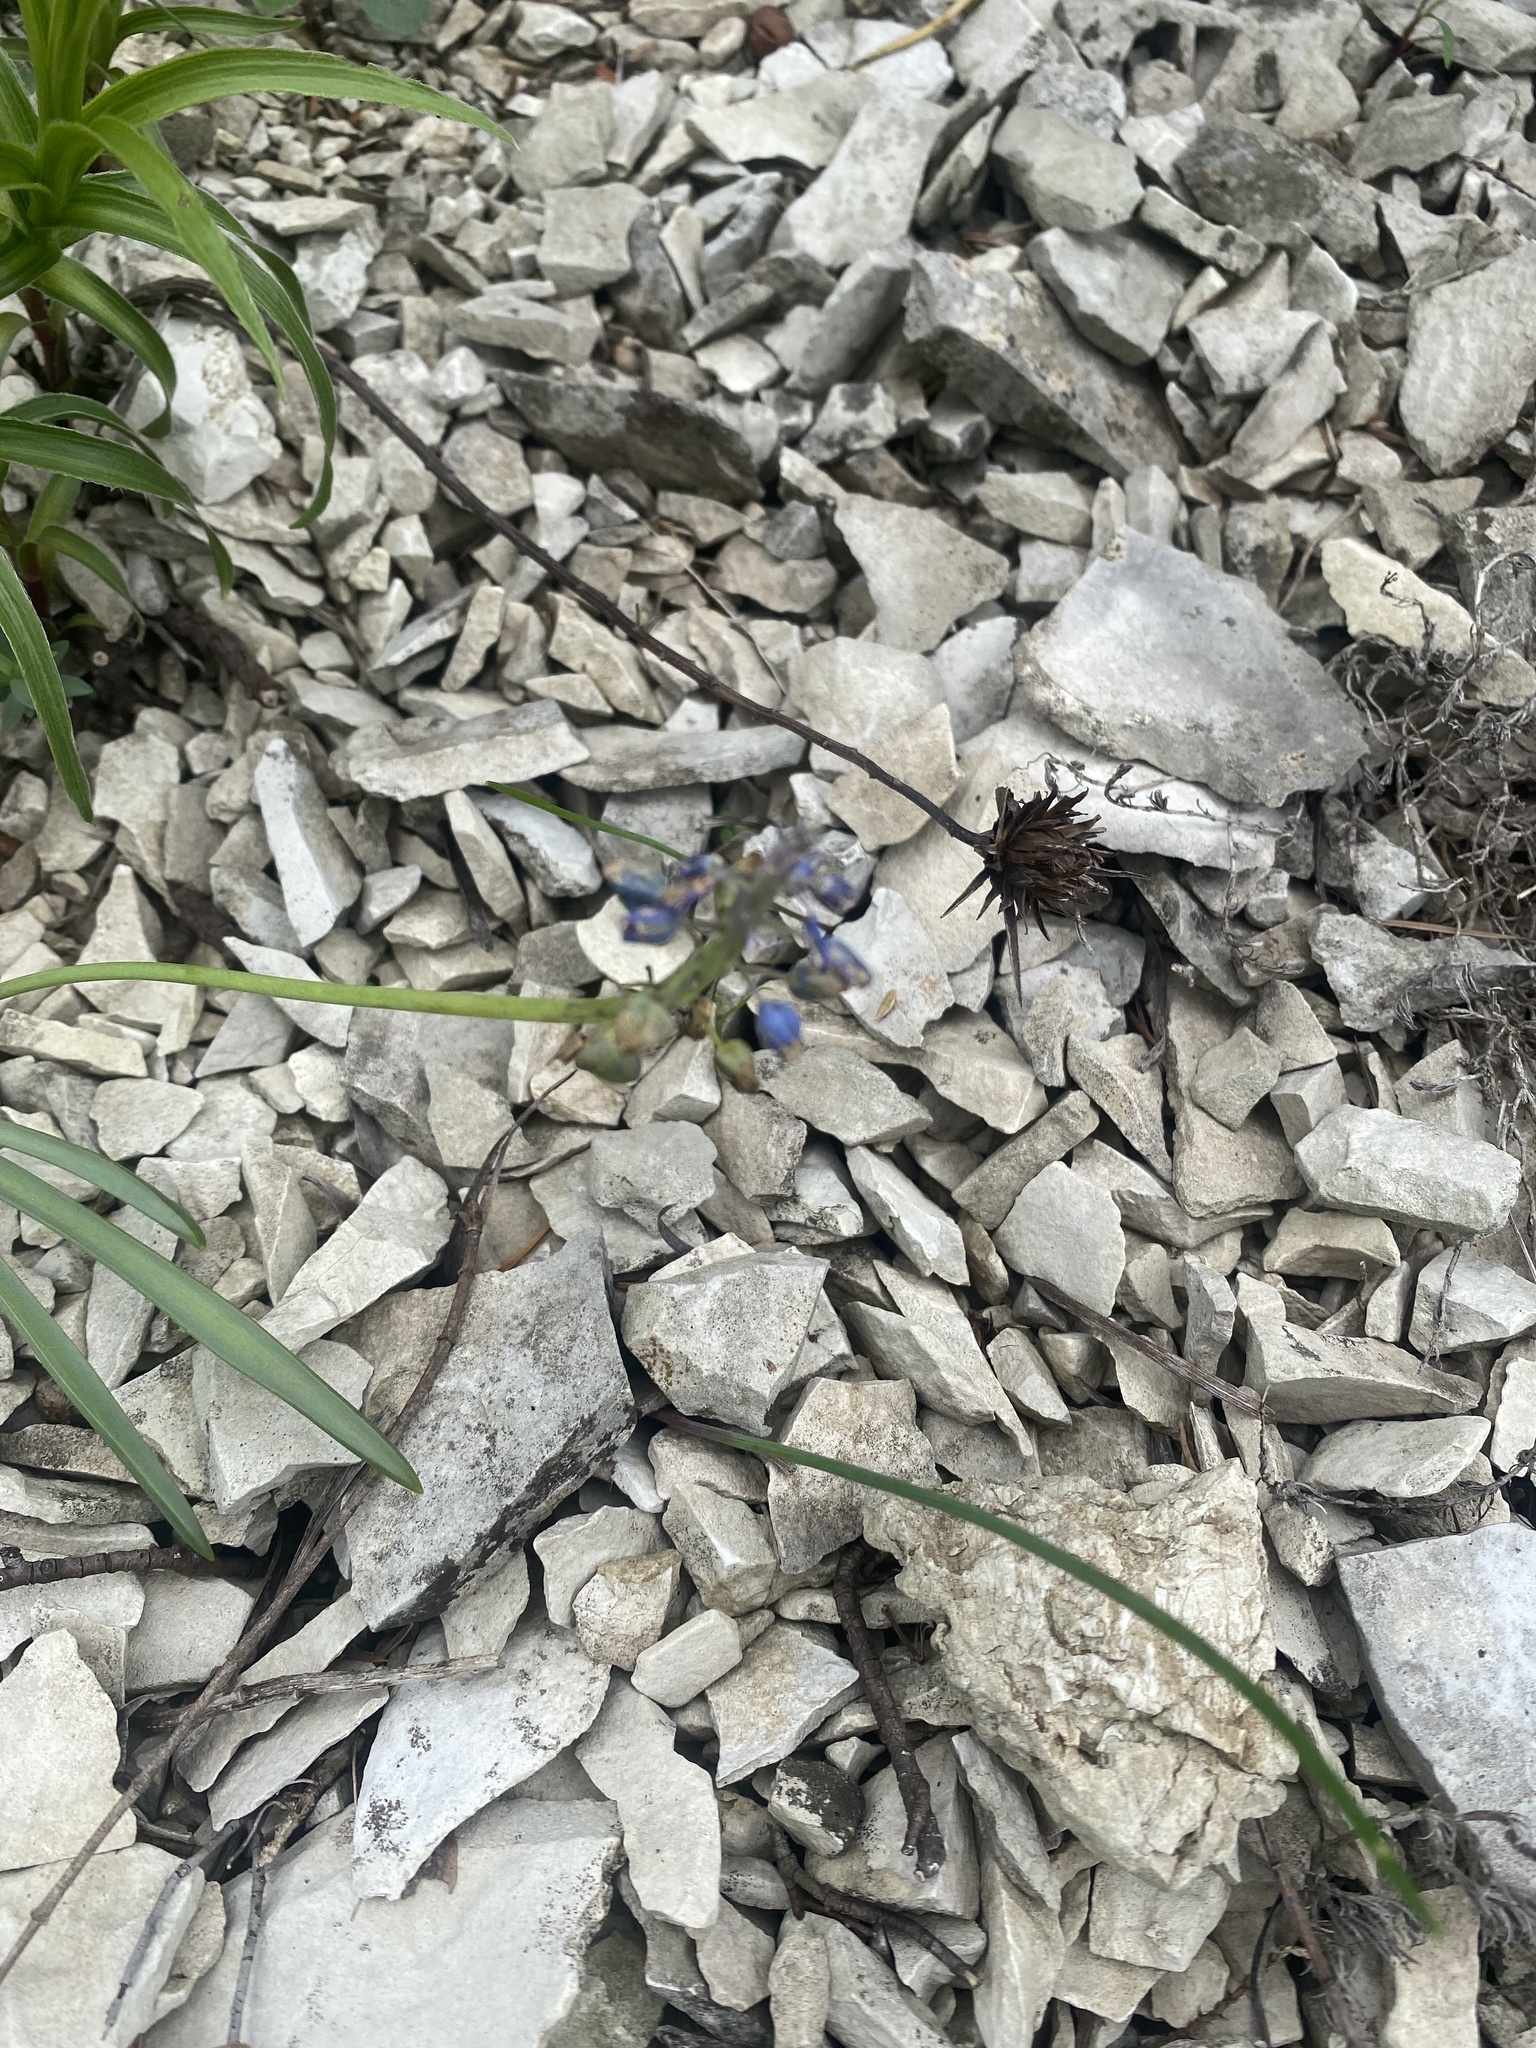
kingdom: Plantae
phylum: Tracheophyta
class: Liliopsida
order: Asparagales
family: Asparagaceae
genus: Muscari
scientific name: Muscari neglectum
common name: Grape-hyacinth
